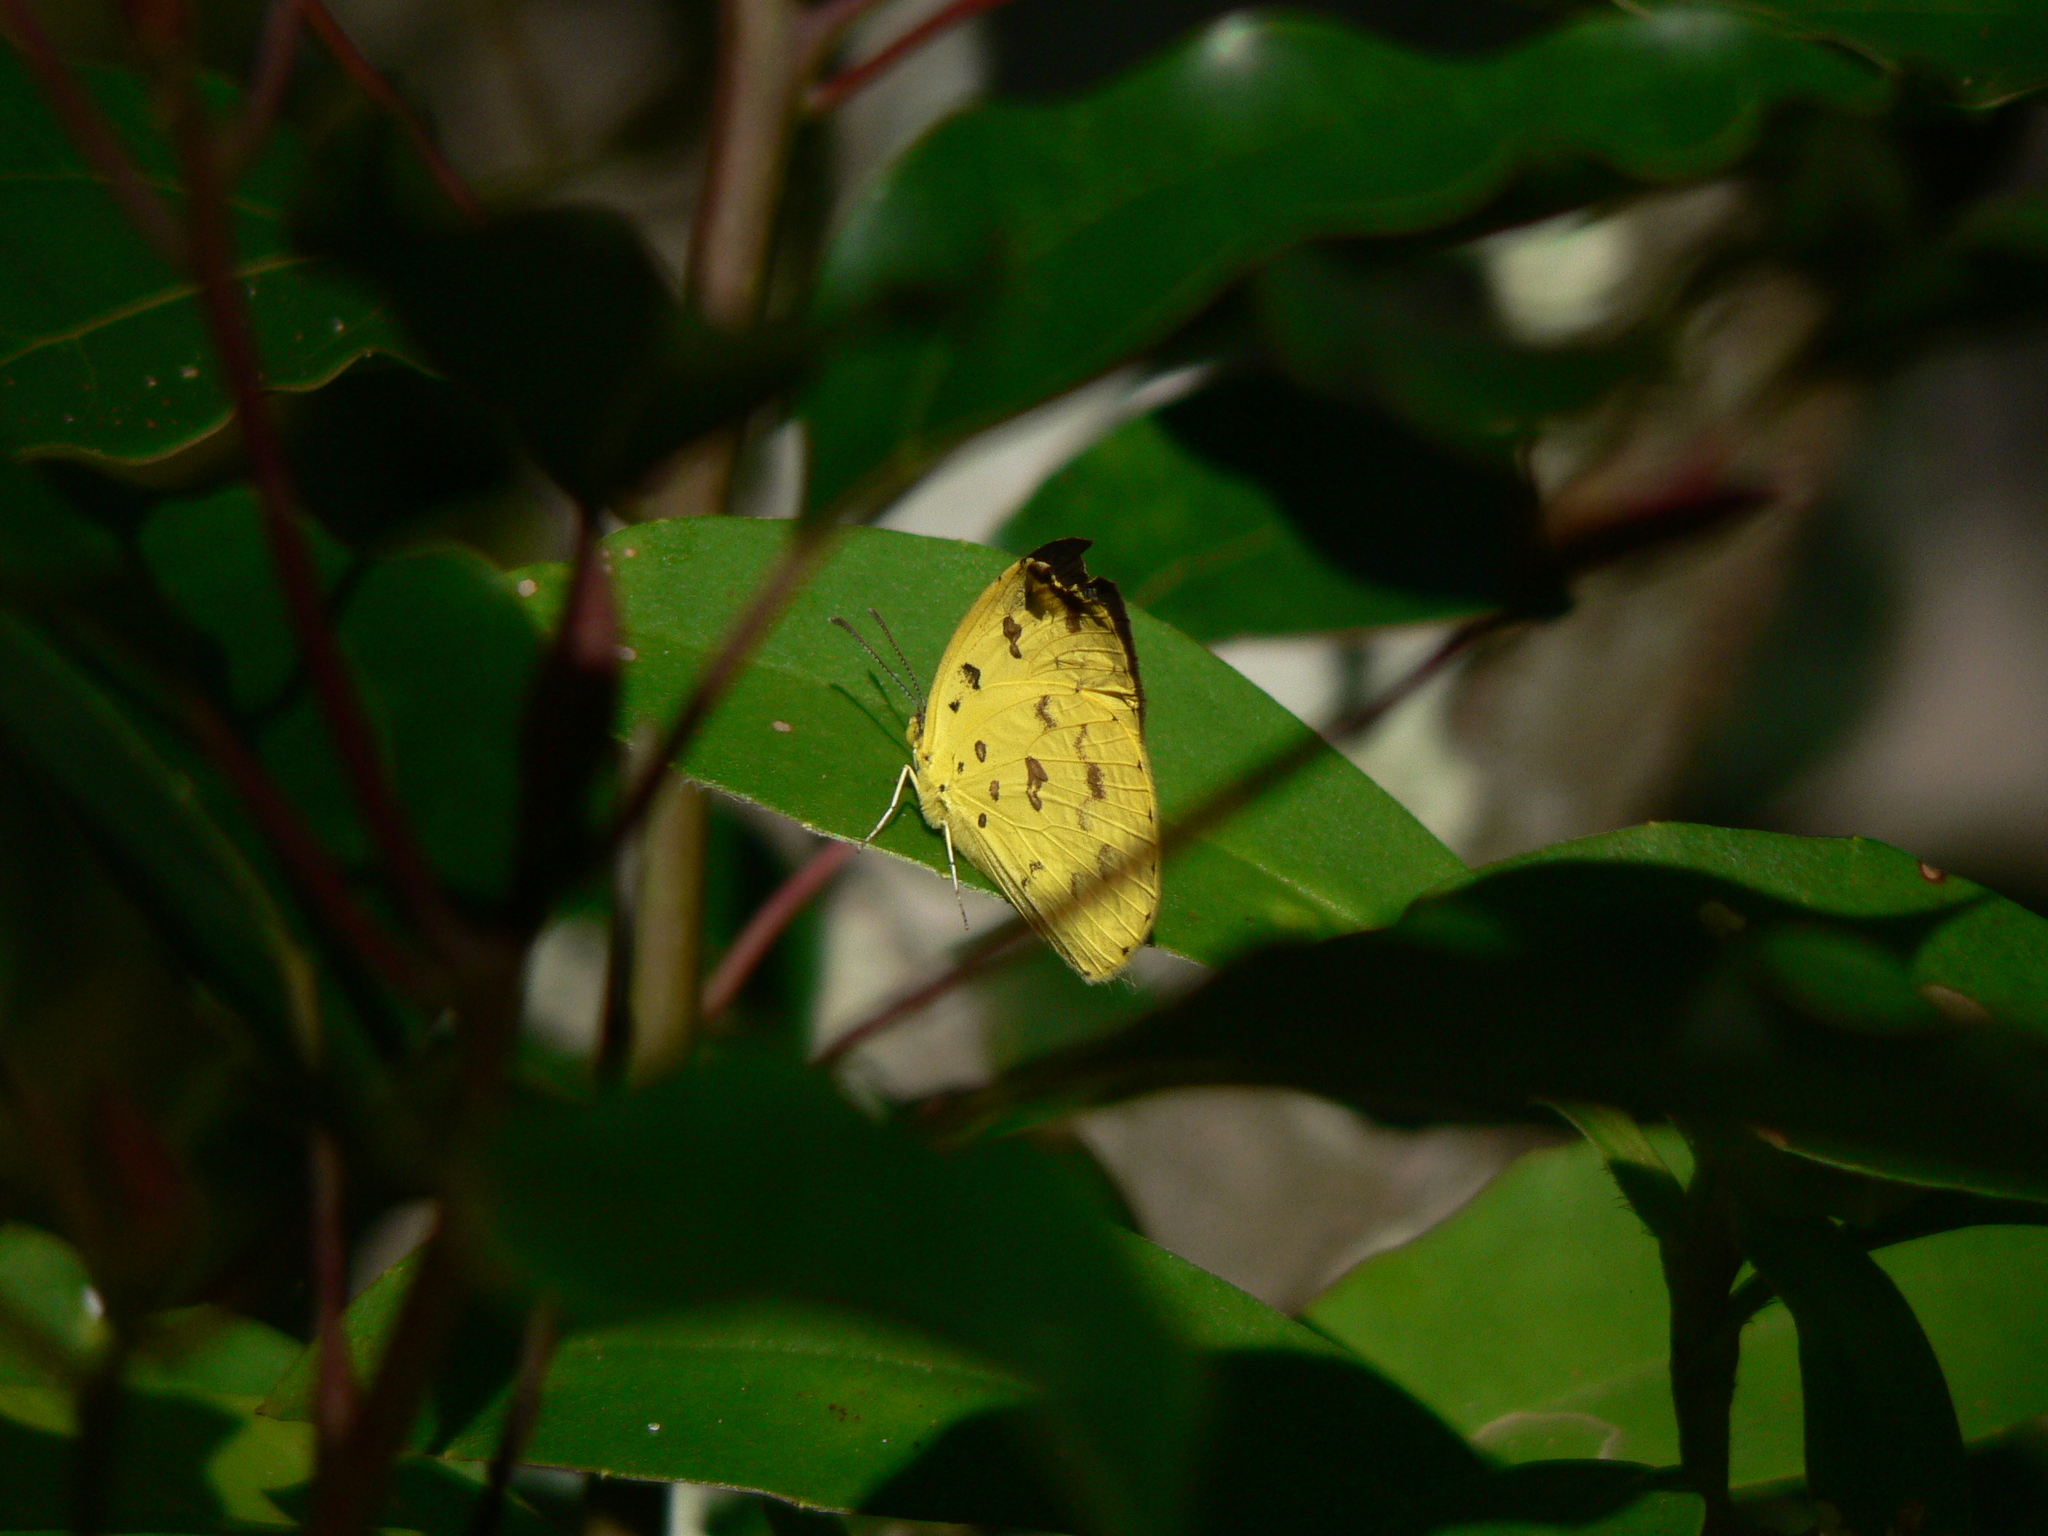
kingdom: Animalia
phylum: Arthropoda
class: Insecta
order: Lepidoptera
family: Pieridae
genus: Eurema
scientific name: Eurema hecabe
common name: Pale grass yellow
